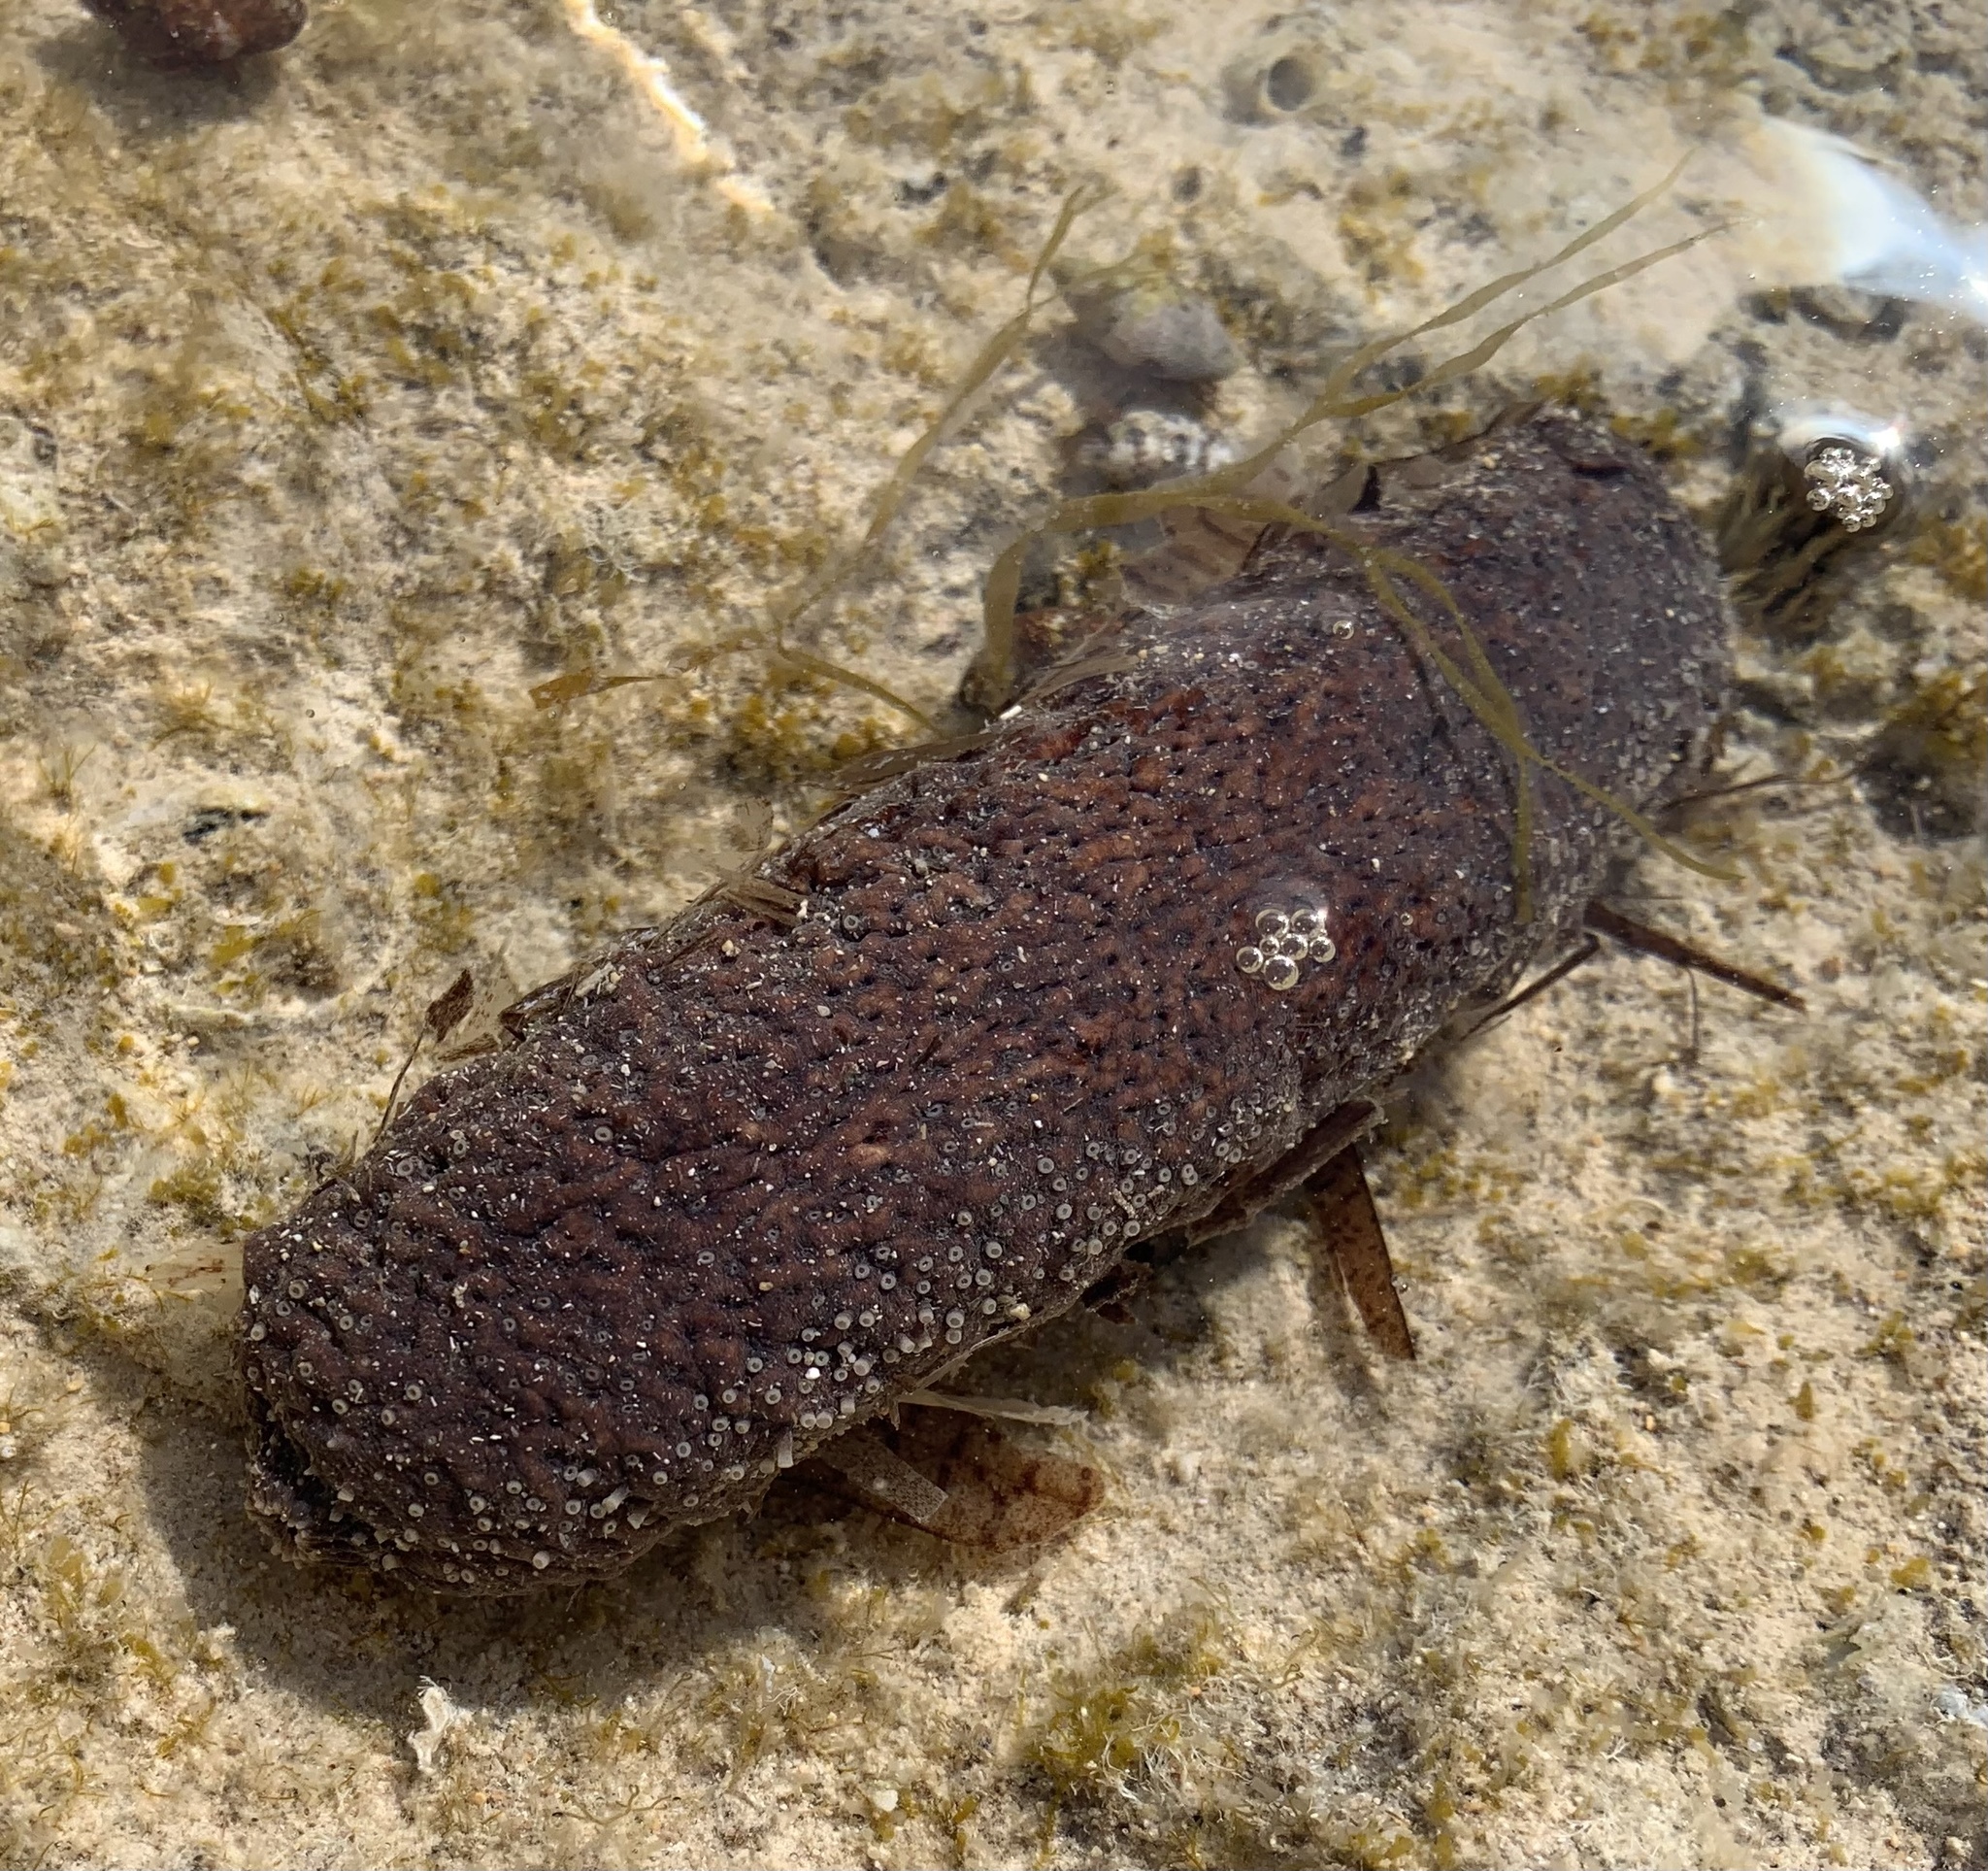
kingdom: Animalia
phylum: Echinodermata
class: Holothuroidea
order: Holothuriida
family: Holothuriidae
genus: Holothuria
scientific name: Holothuria poli
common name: White spot cucumber
